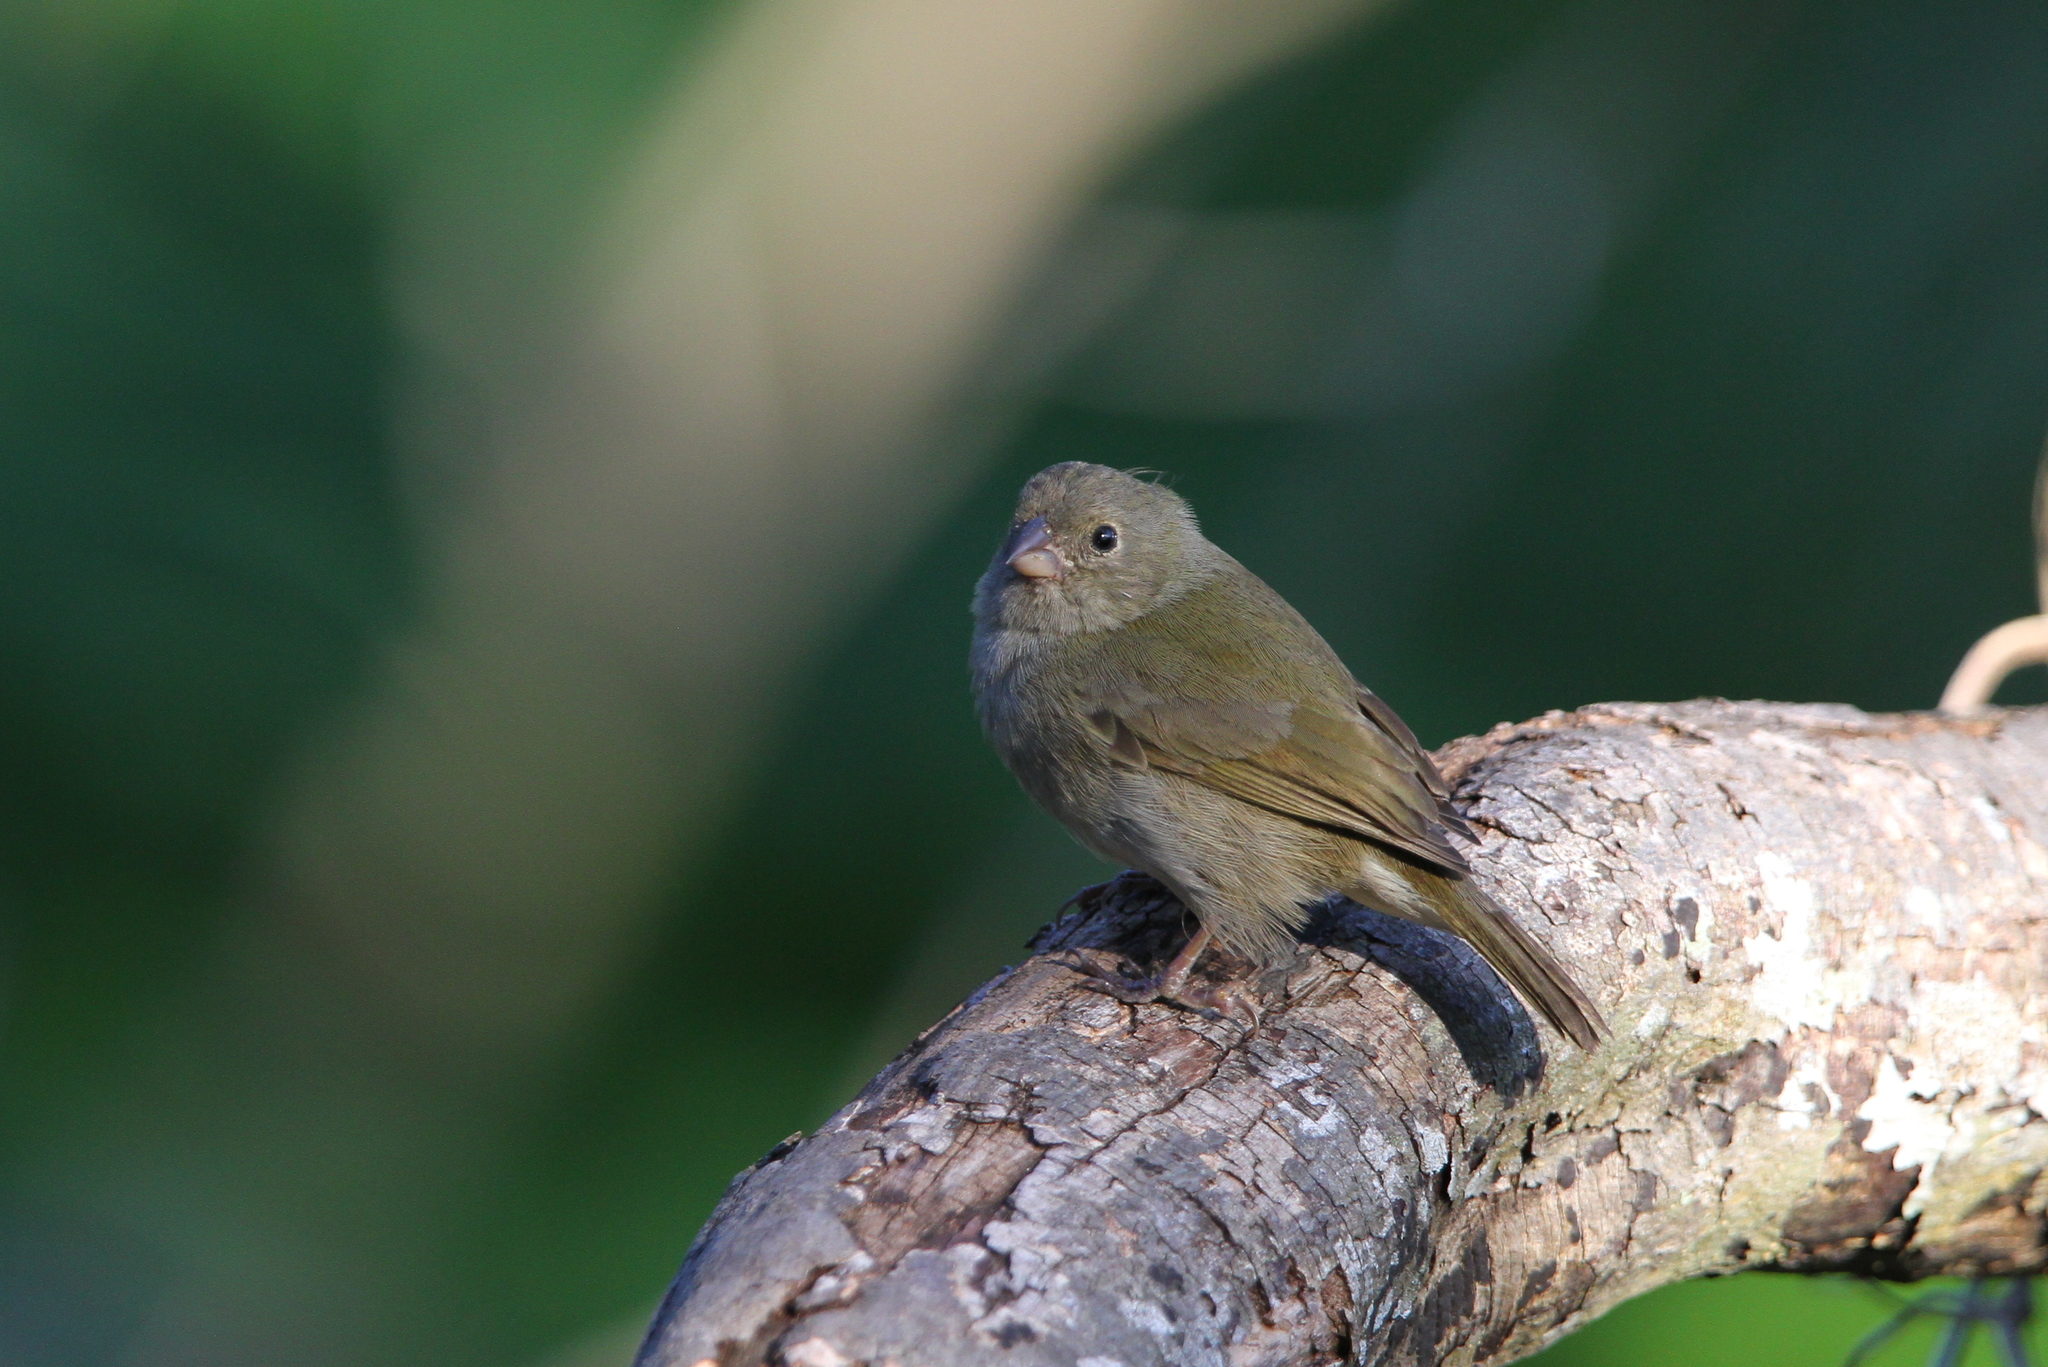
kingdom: Animalia
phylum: Chordata
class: Aves
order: Passeriformes
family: Thraupidae
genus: Melanospiza
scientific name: Melanospiza bicolor
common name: Black-faced grassquit
